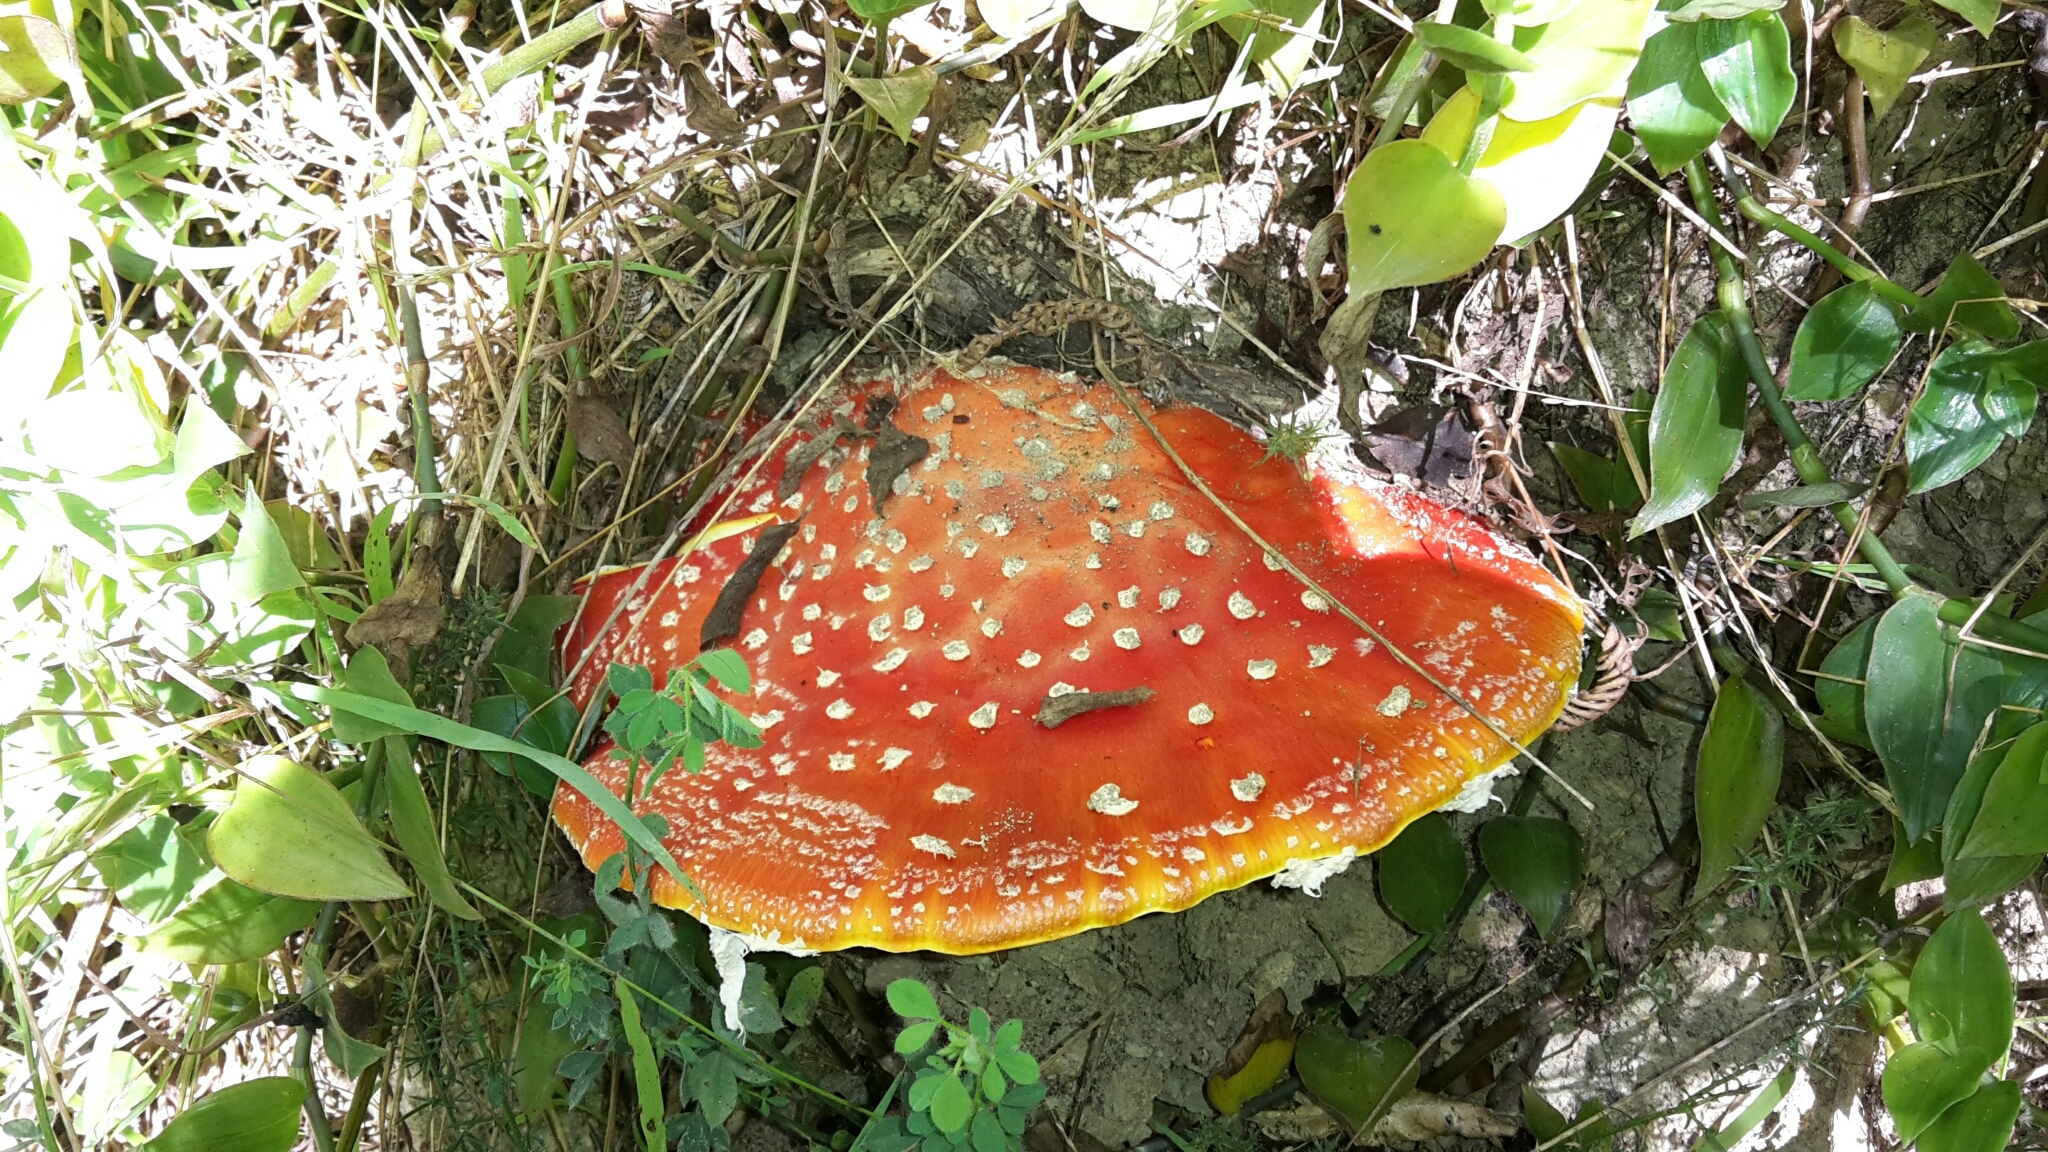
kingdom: Fungi
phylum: Basidiomycota
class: Agaricomycetes
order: Agaricales
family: Amanitaceae
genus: Amanita
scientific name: Amanita muscaria
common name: Fly agaric
